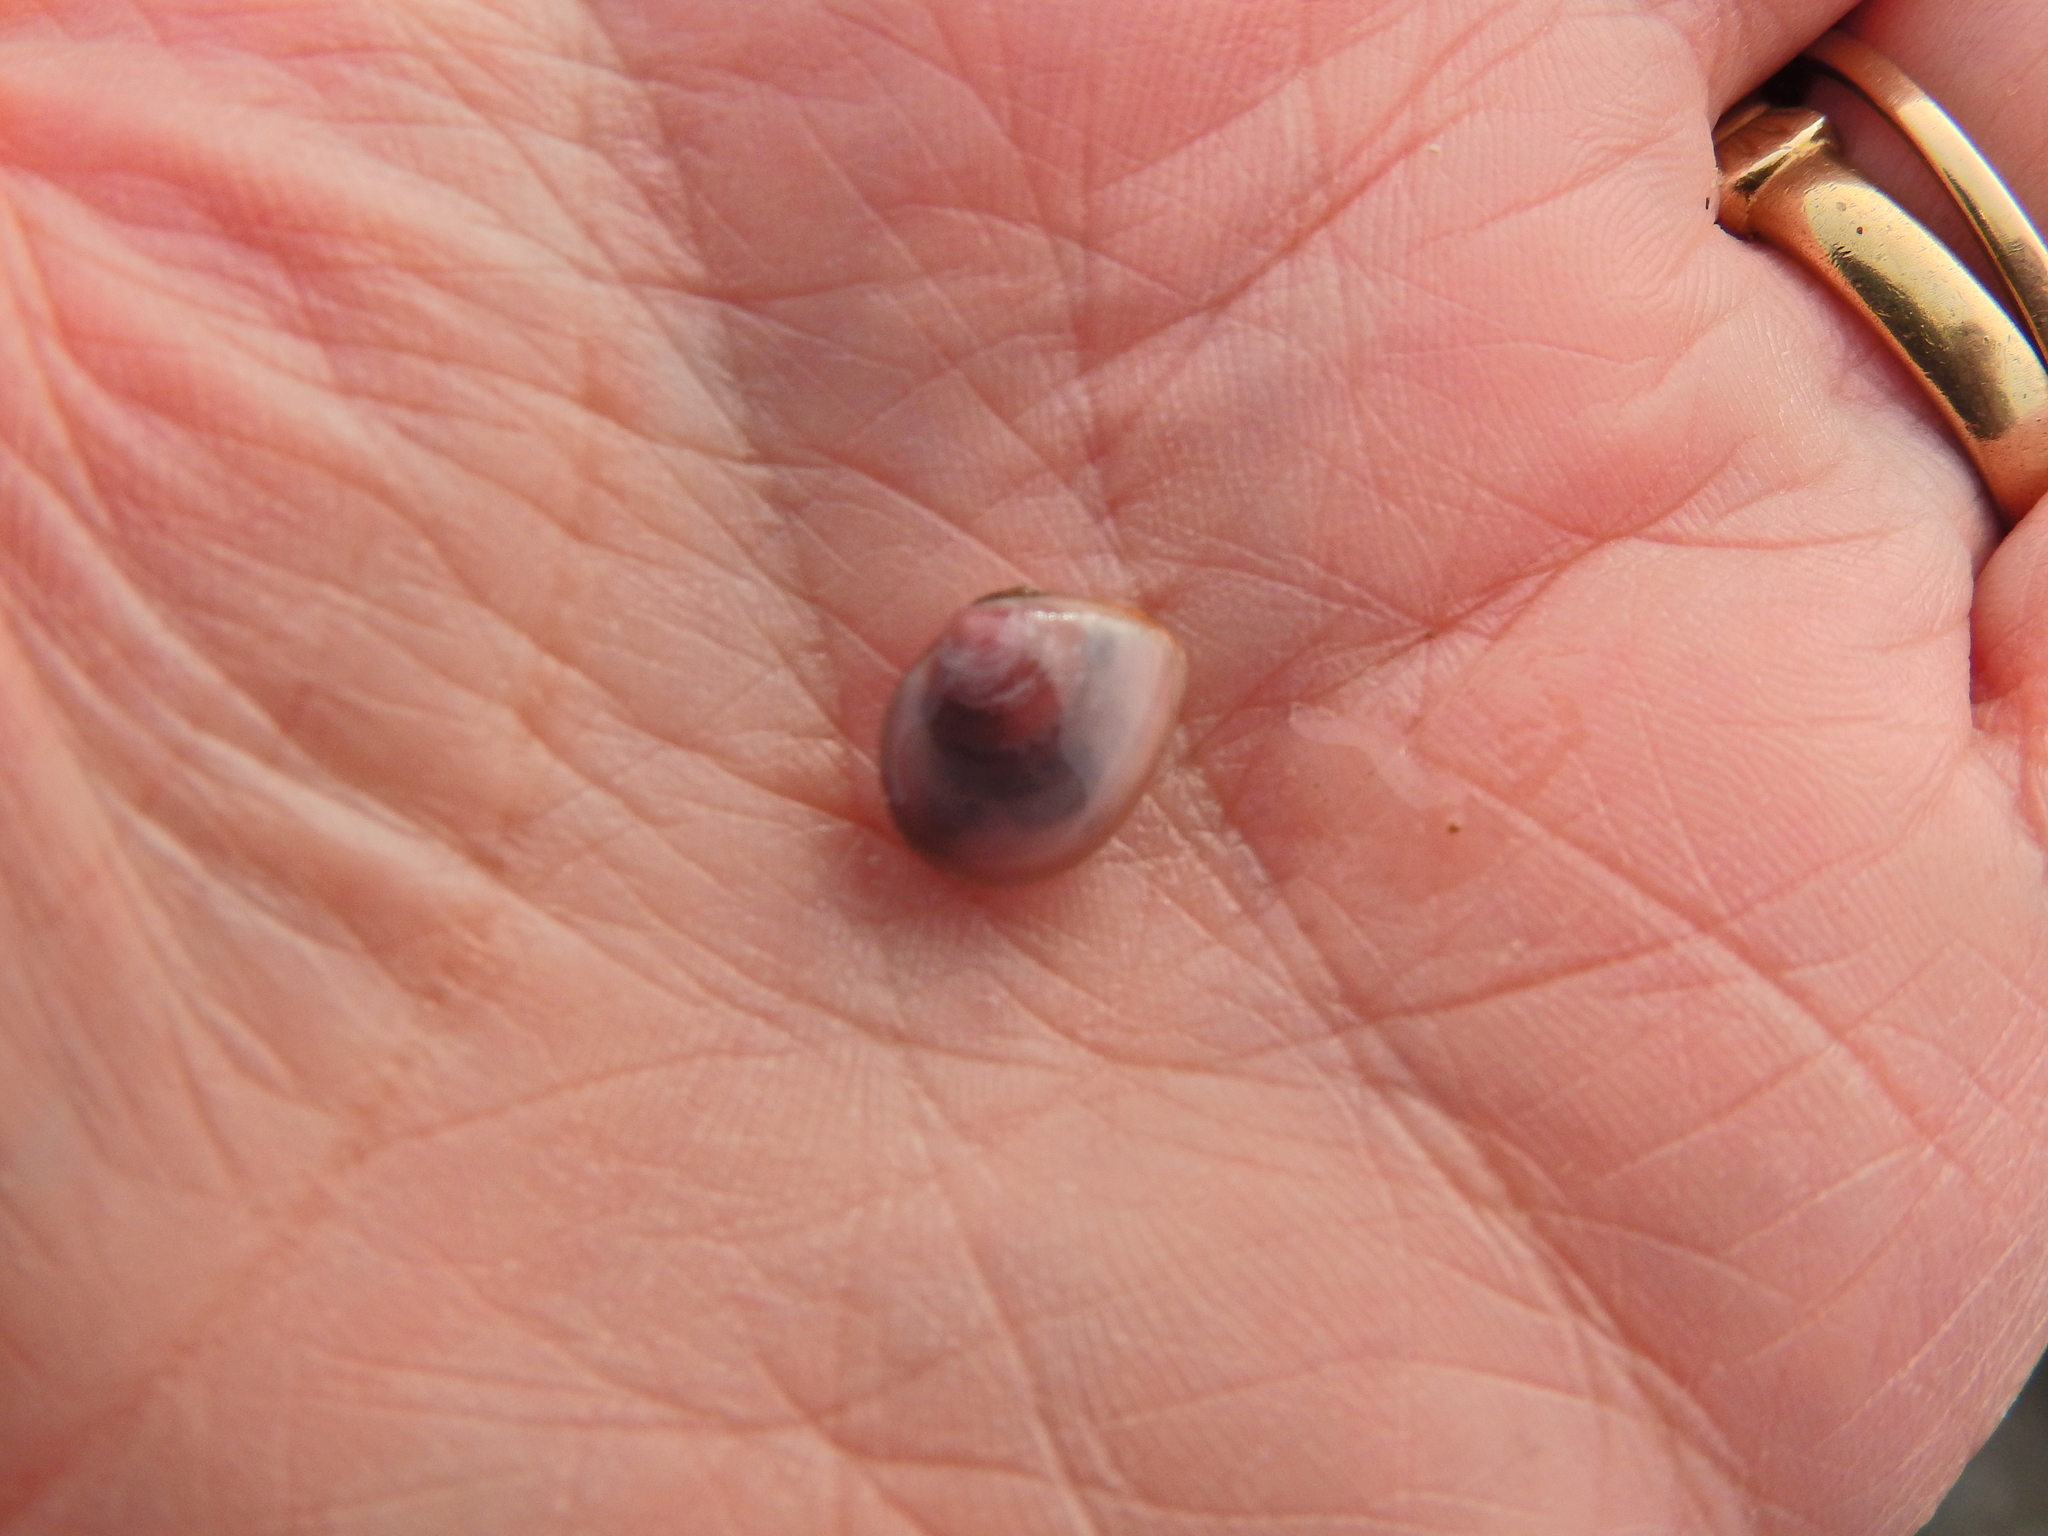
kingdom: Animalia
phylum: Mollusca
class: Bivalvia
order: Cardiida
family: Tellinidae
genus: Macoma
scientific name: Macoma balthica
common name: Baltic tellin
